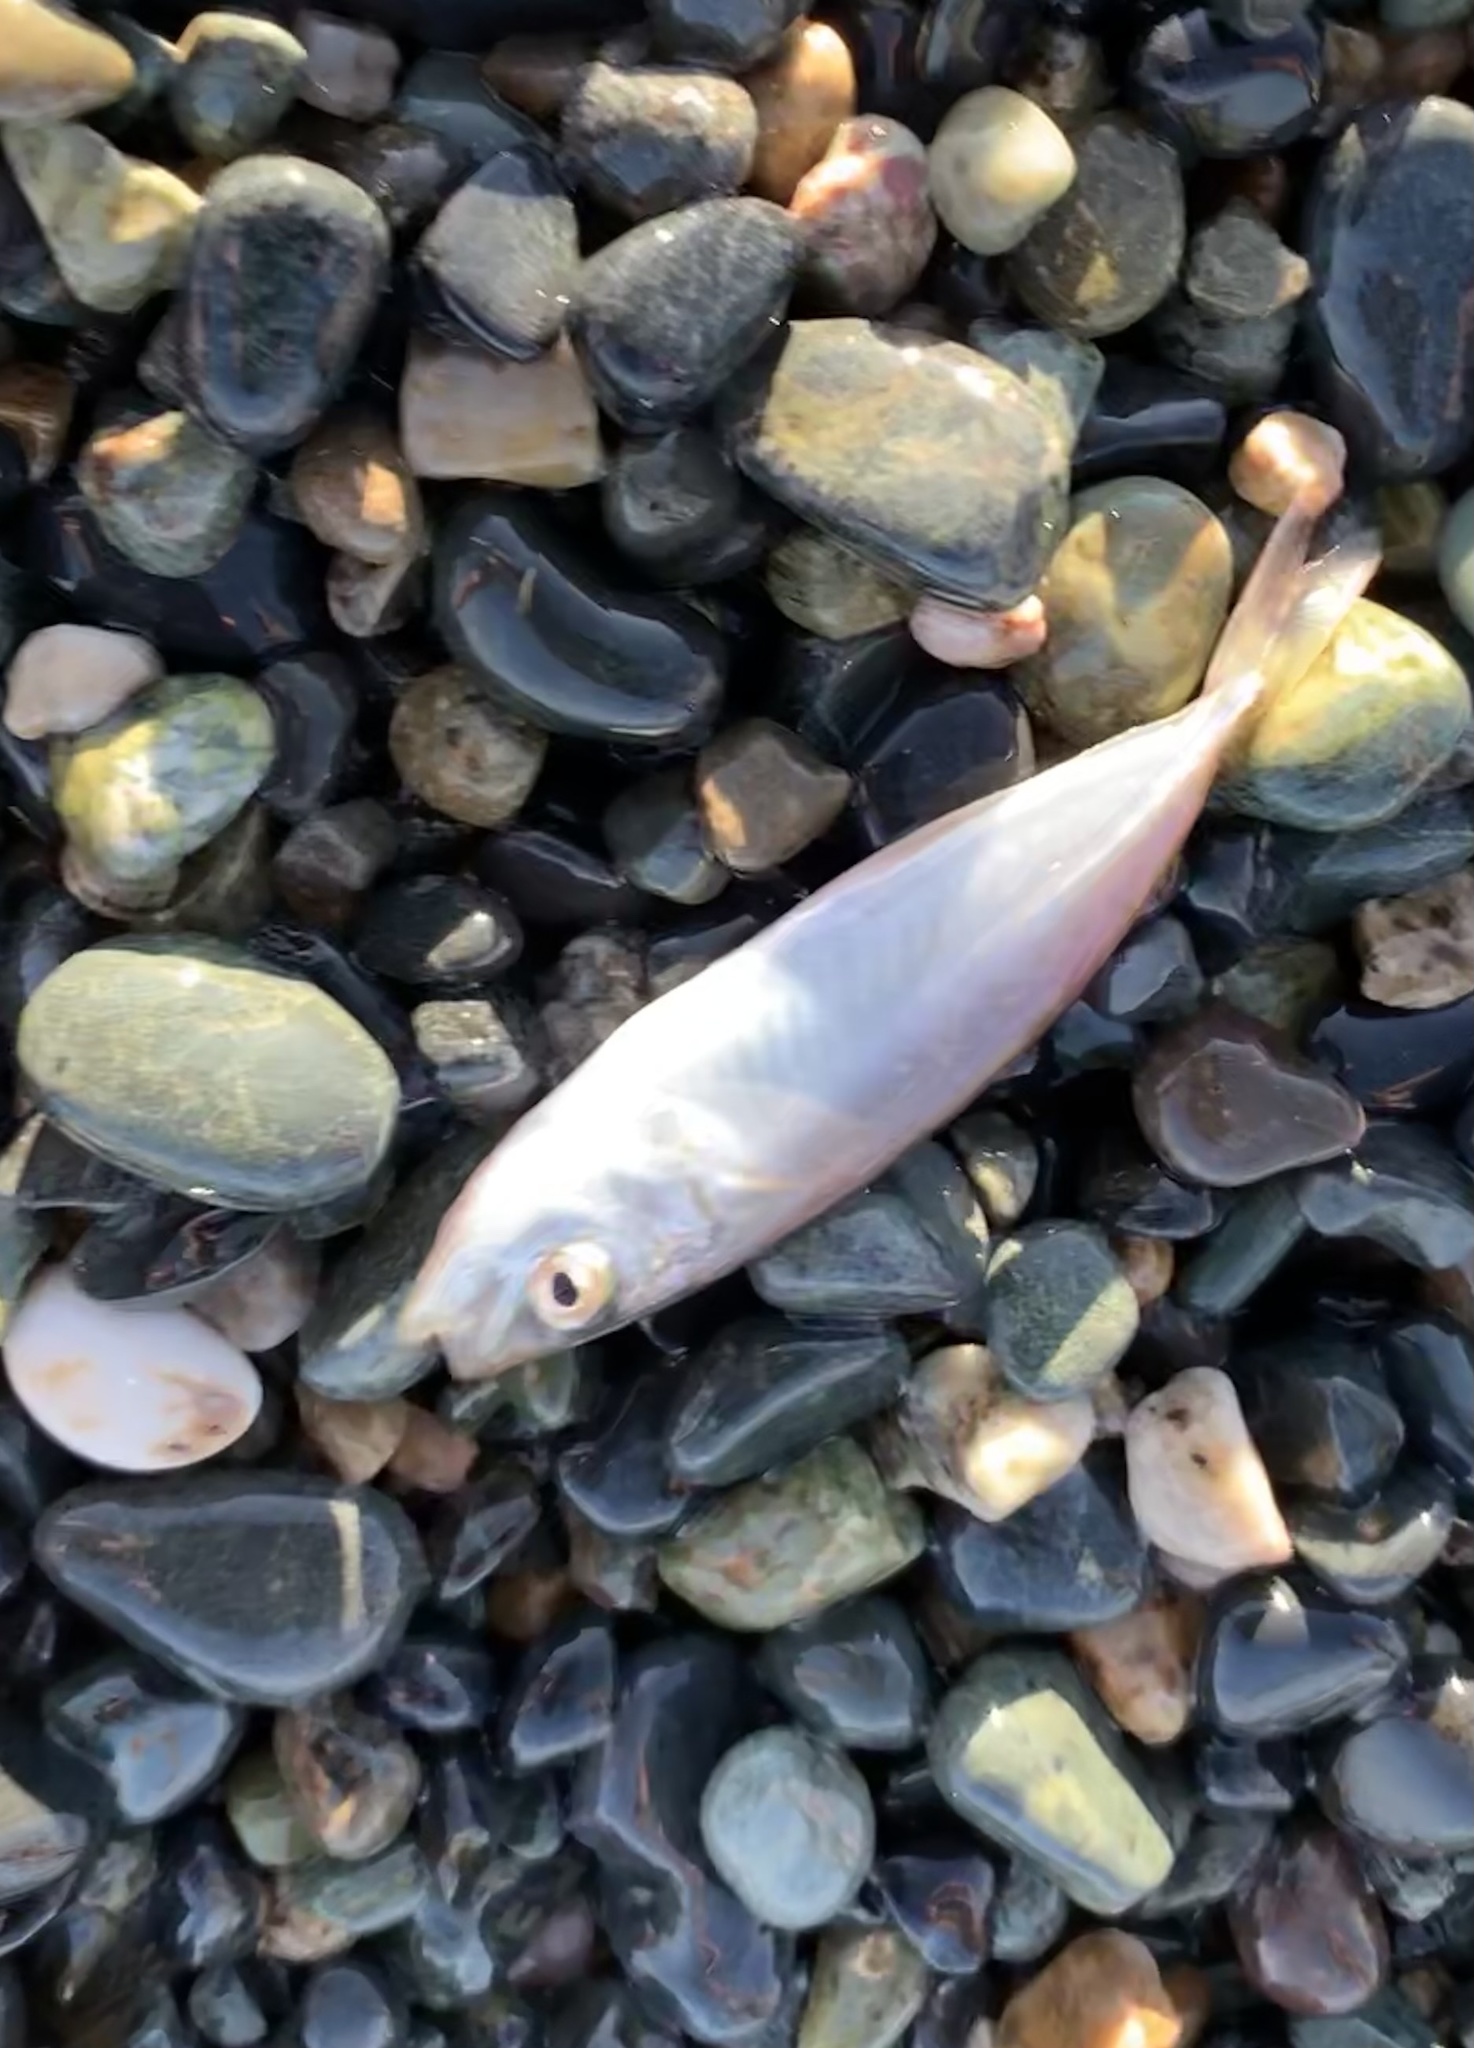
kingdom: Animalia
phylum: Chordata
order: Perciformes
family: Carangidae
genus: Trachurus
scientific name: Trachurus
